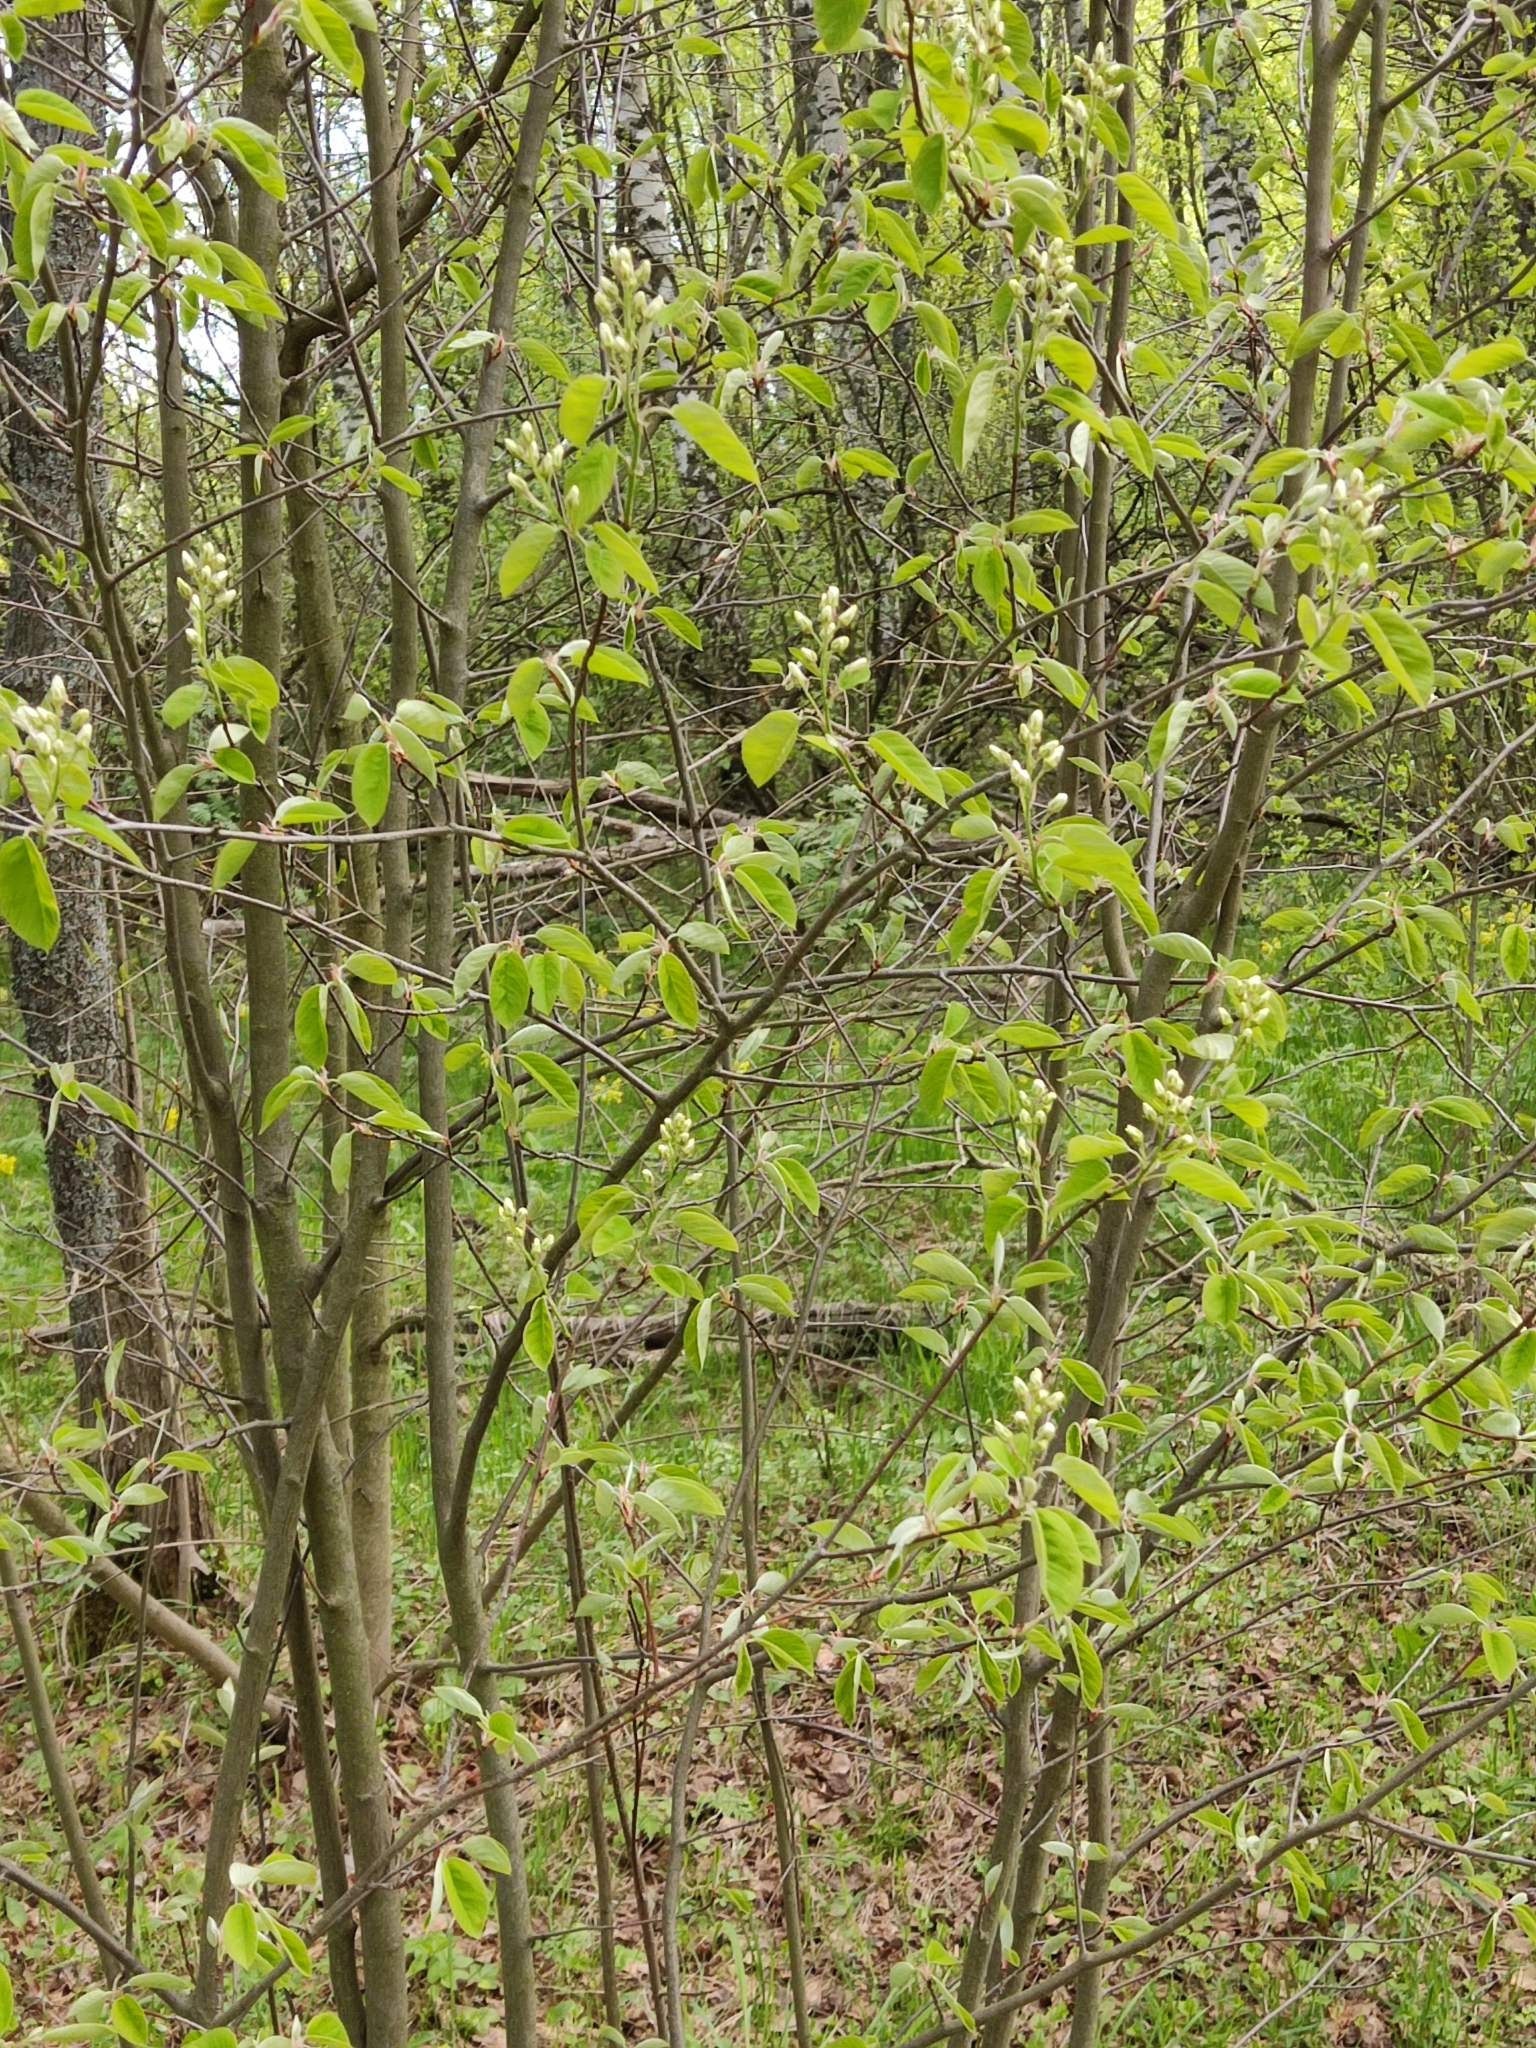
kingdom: Plantae
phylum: Tracheophyta
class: Magnoliopsida
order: Rosales
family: Rosaceae
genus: Amelanchier
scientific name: Amelanchier
